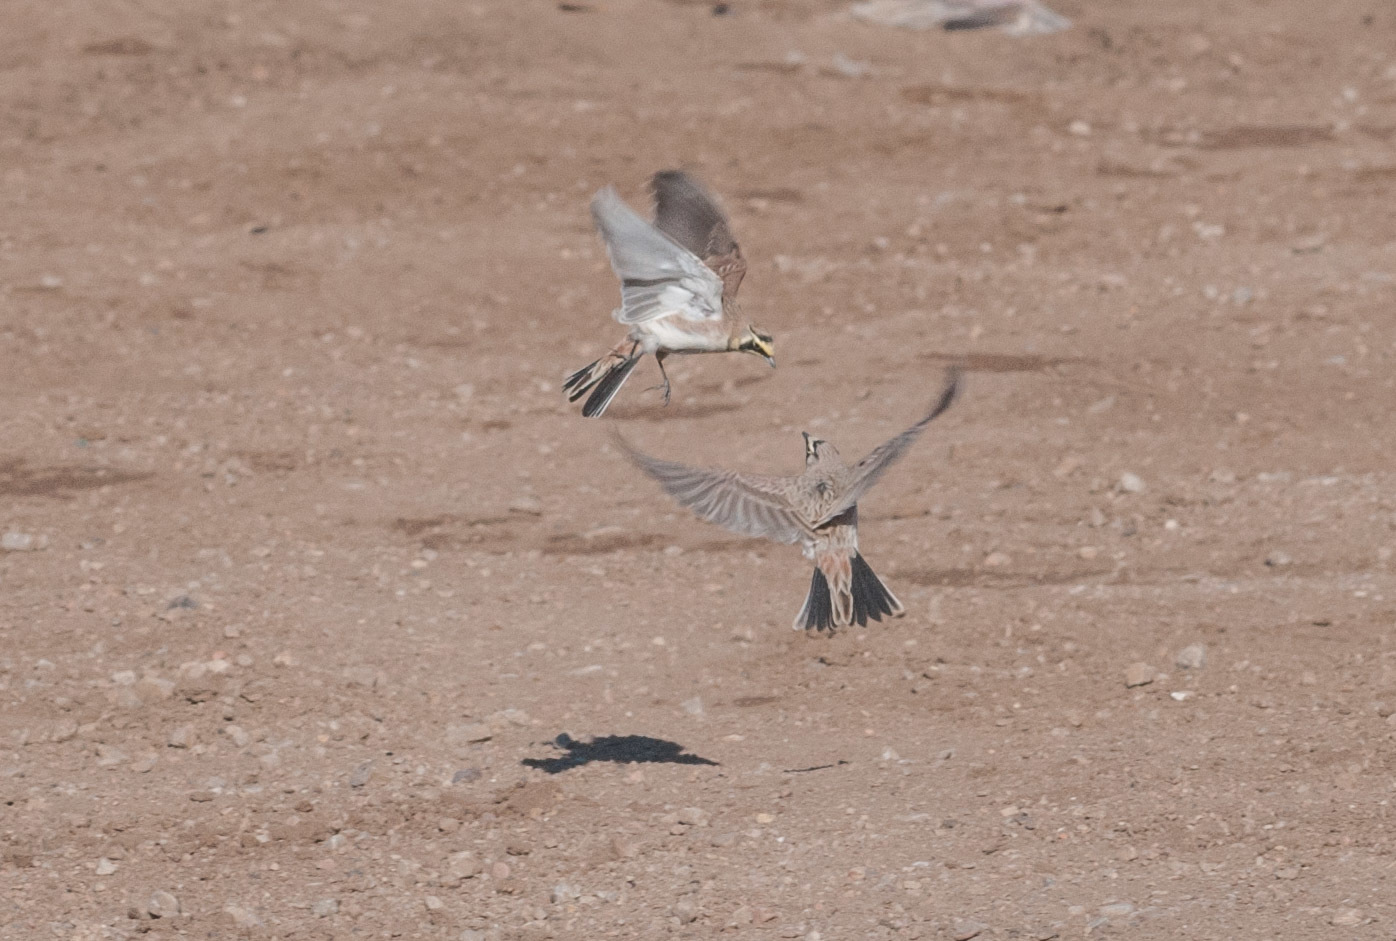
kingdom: Animalia
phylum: Chordata
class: Aves
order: Passeriformes
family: Alaudidae
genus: Eremophila
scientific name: Eremophila alpestris
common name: Horned lark
